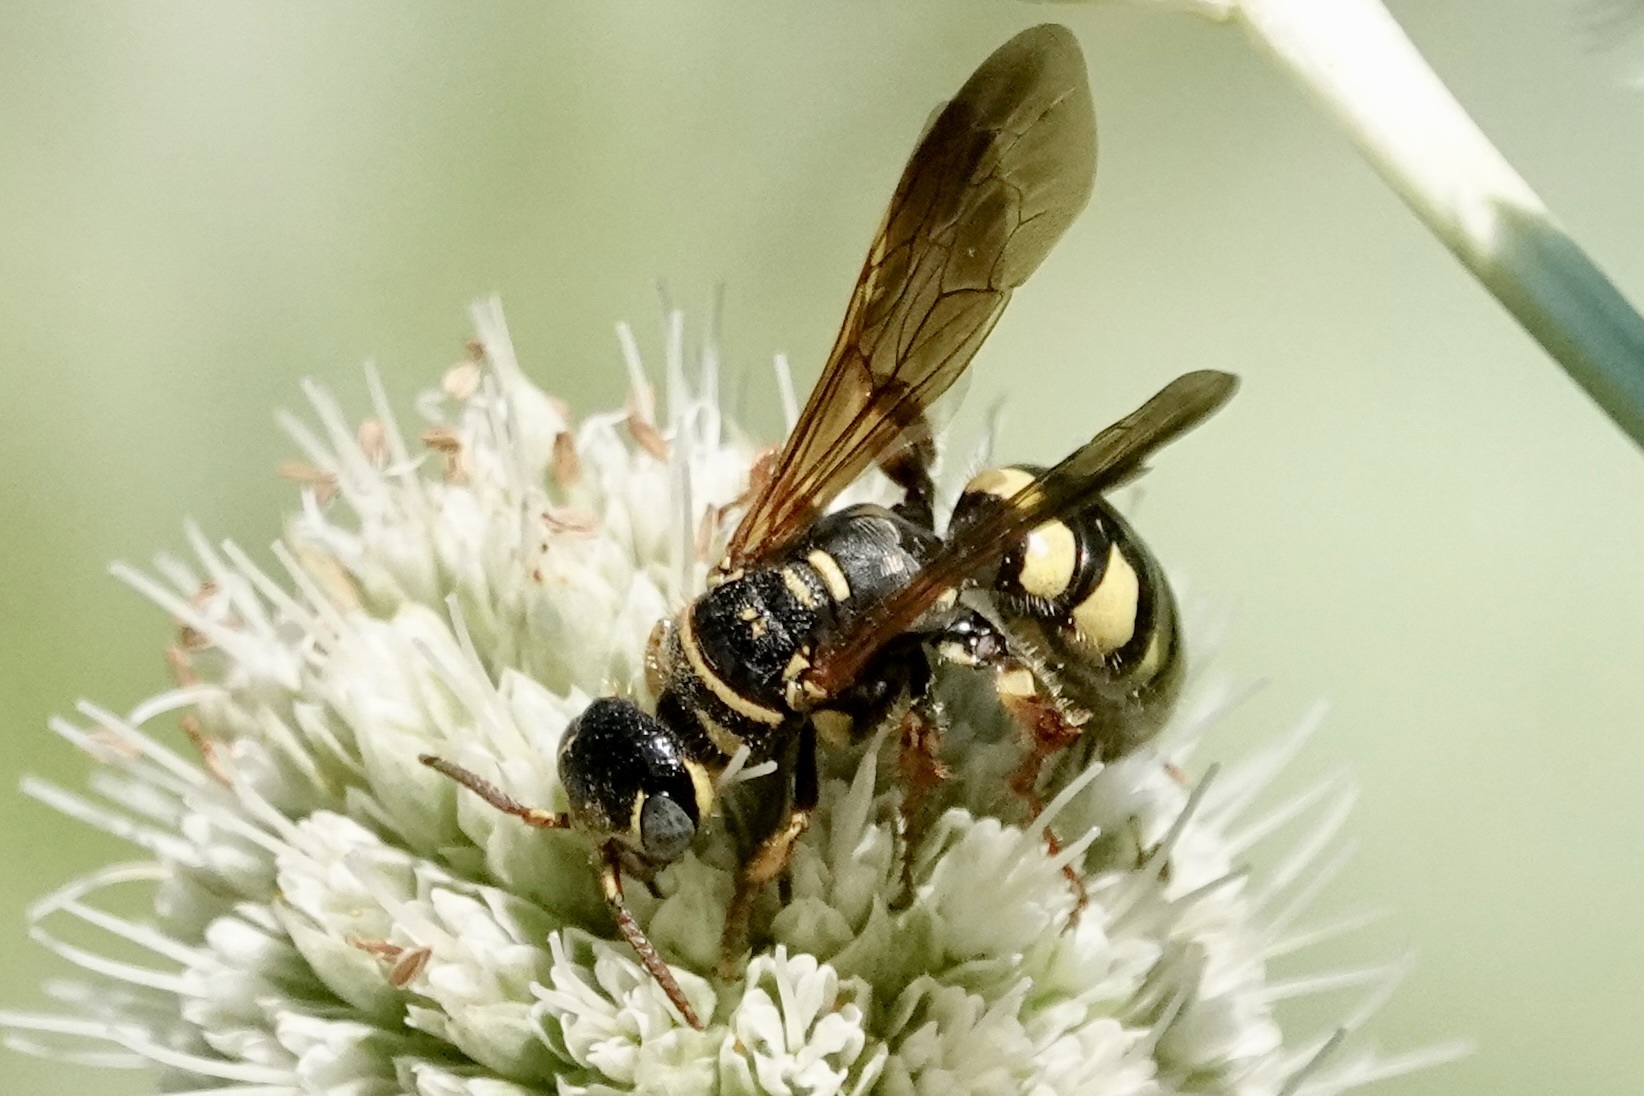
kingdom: Animalia
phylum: Arthropoda
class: Insecta
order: Hymenoptera
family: Tiphiidae
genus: Myzinum
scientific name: Myzinum quinquecinctum
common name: Five-banded thynnid wasp
